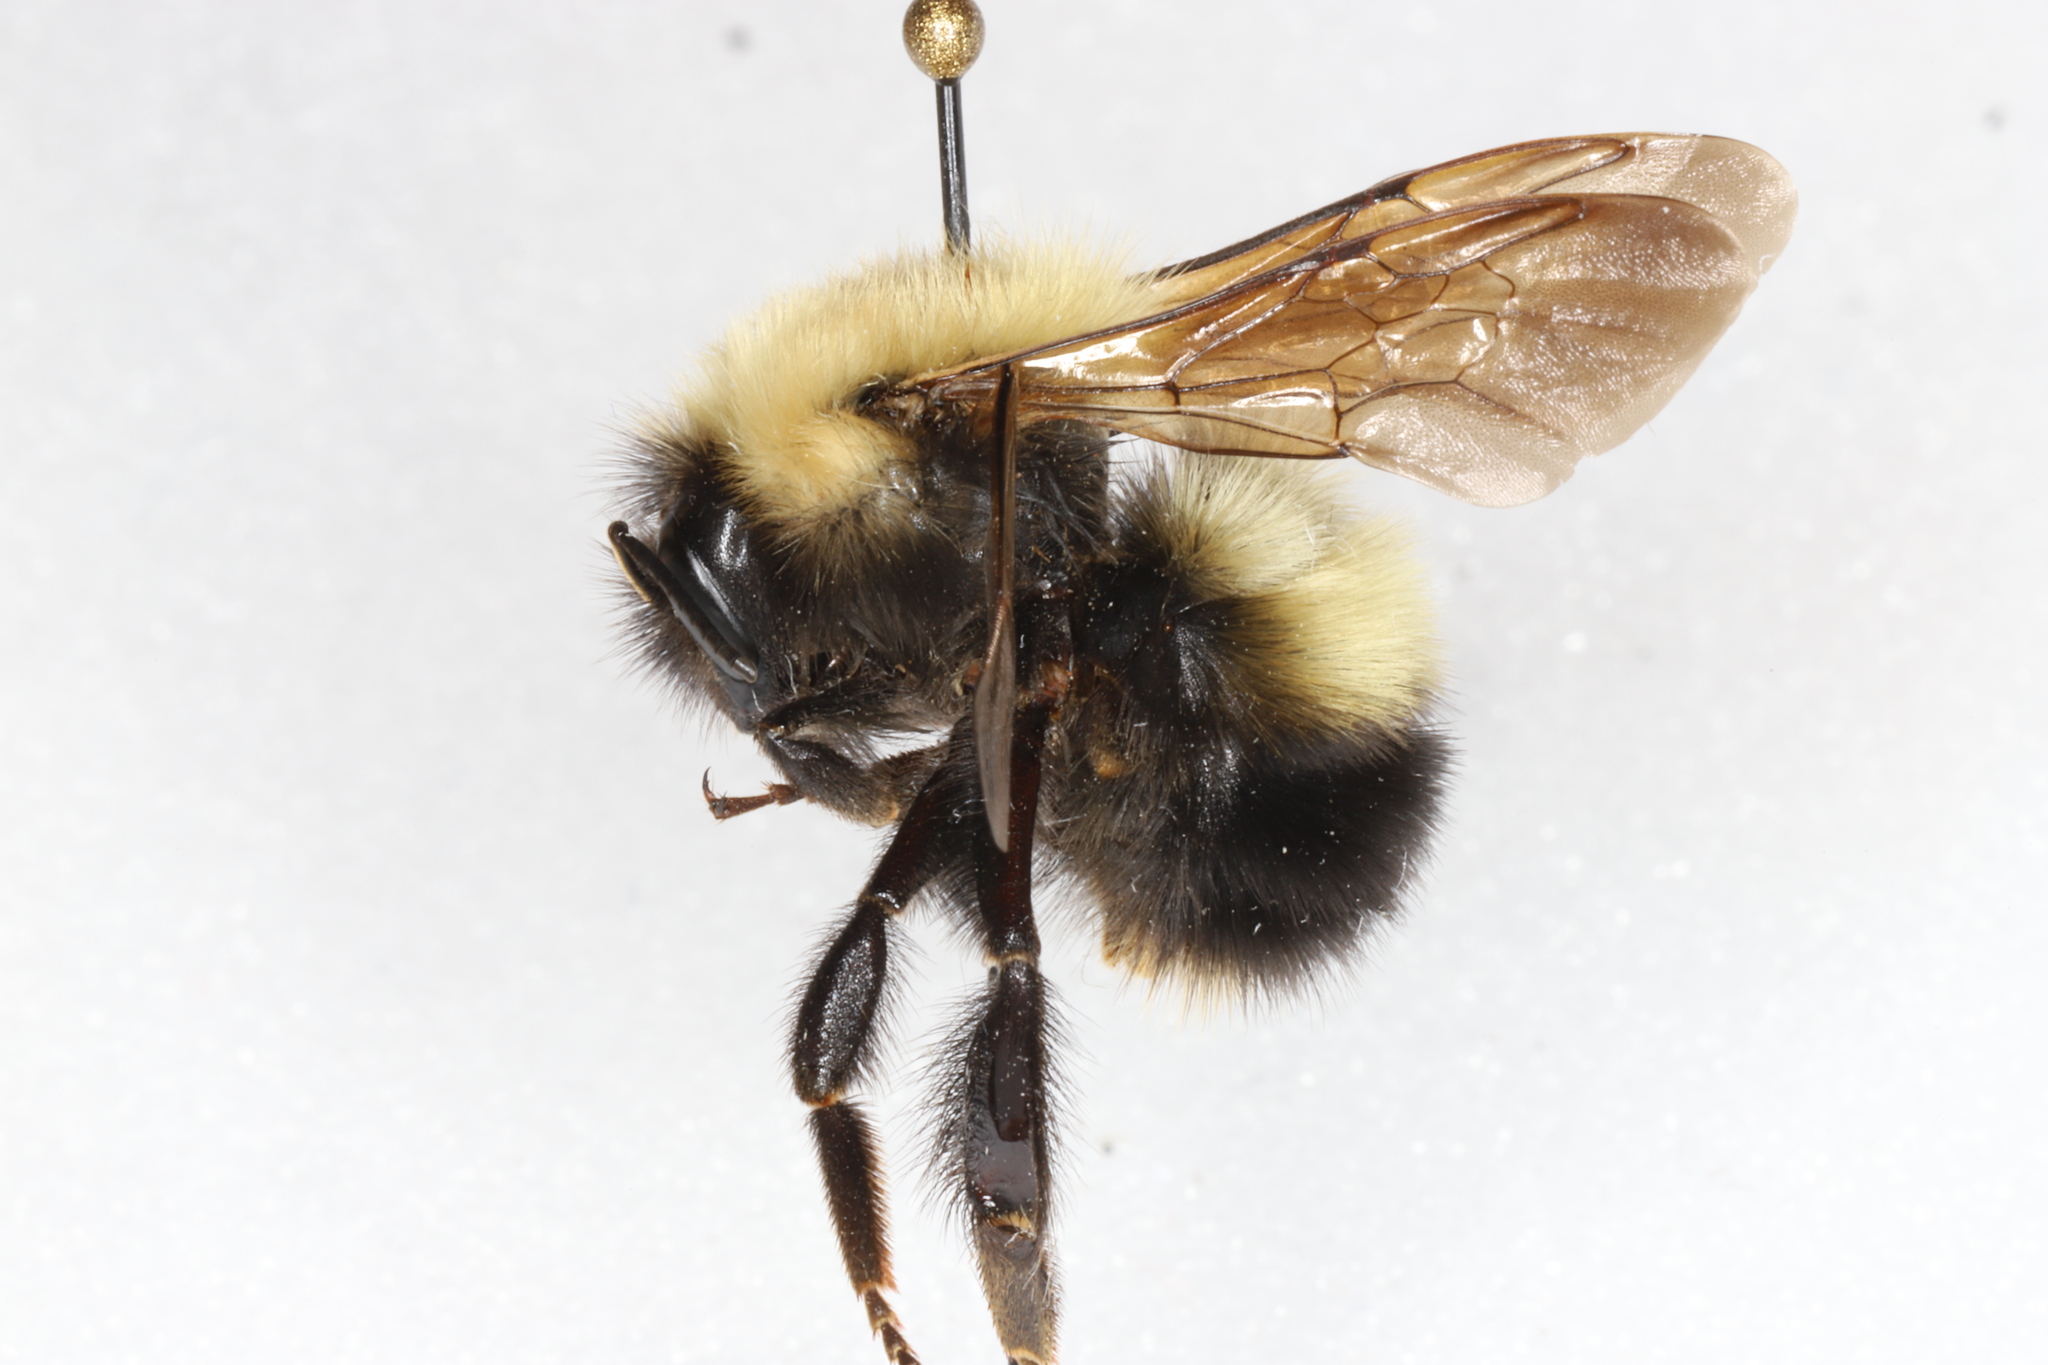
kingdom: Animalia
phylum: Arthropoda
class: Insecta
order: Hymenoptera
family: Apidae
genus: Bombus
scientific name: Bombus perplexus
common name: Confusing bumble bee
